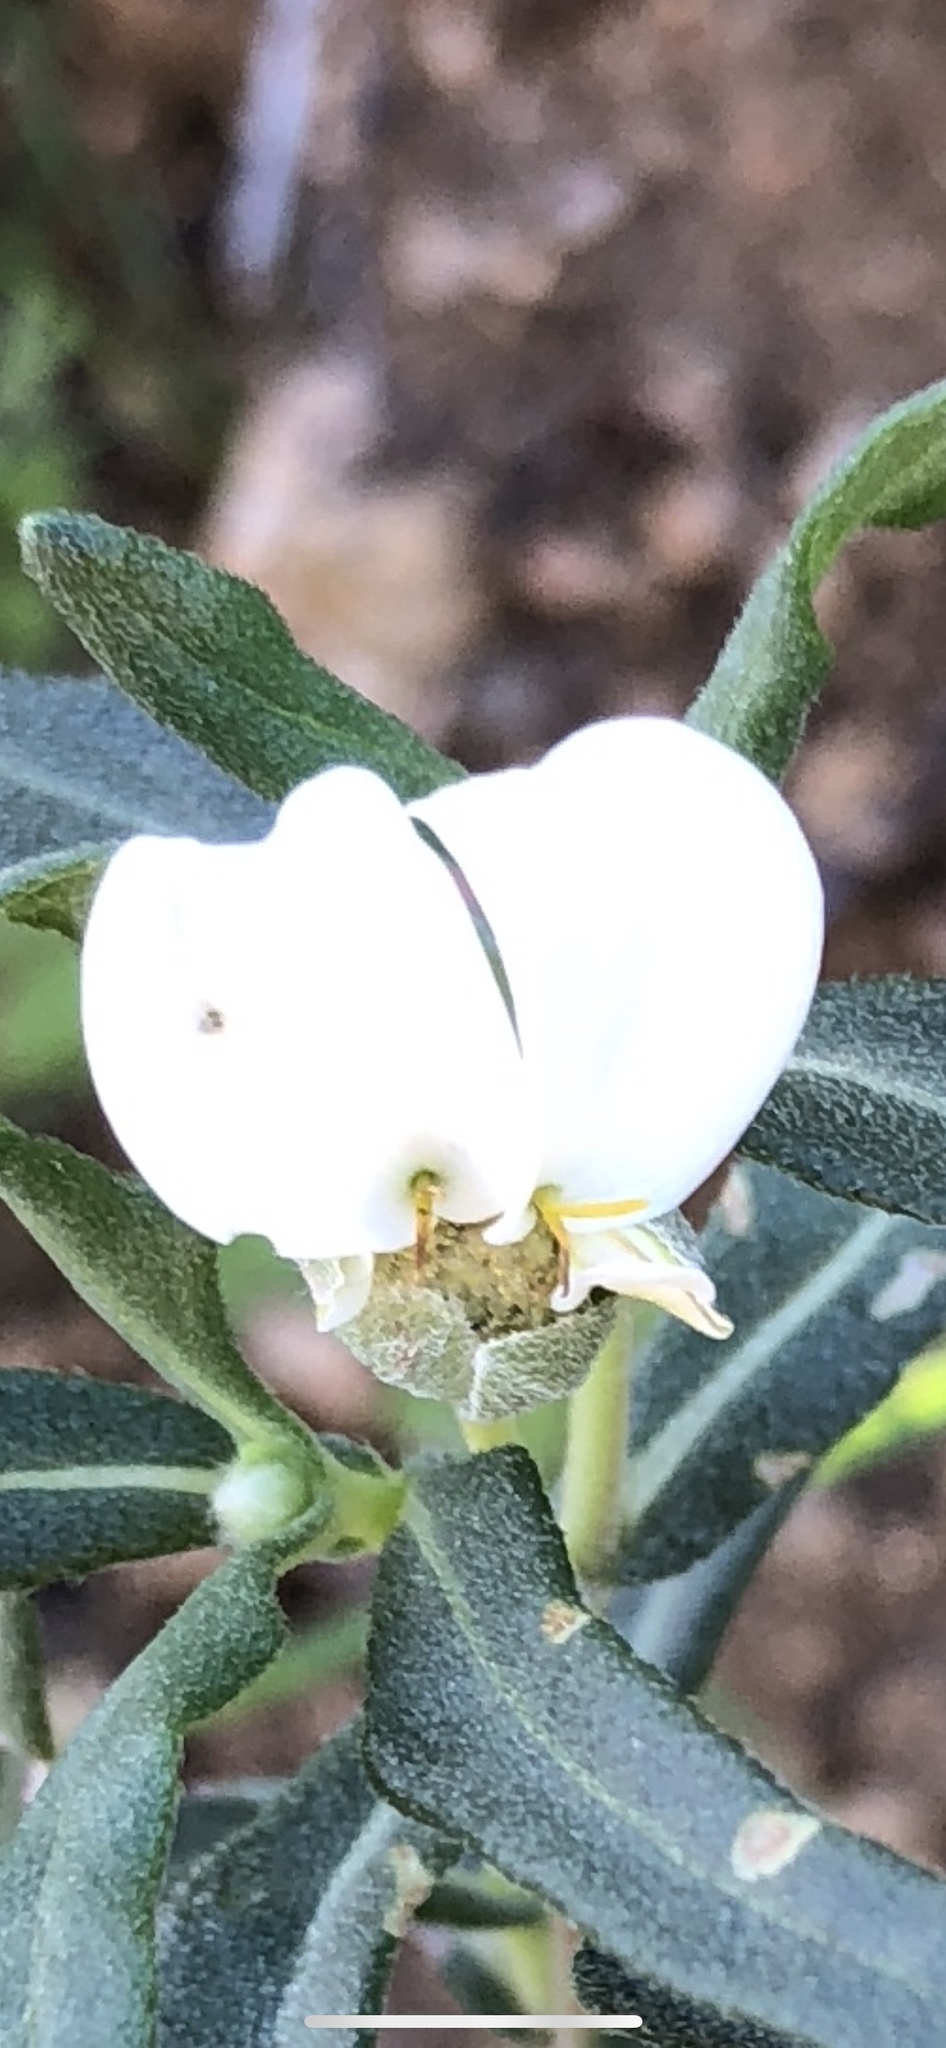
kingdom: Plantae
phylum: Tracheophyta
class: Magnoliopsida
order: Asterales
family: Asteraceae
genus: Melampodium
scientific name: Melampodium leucanthum
